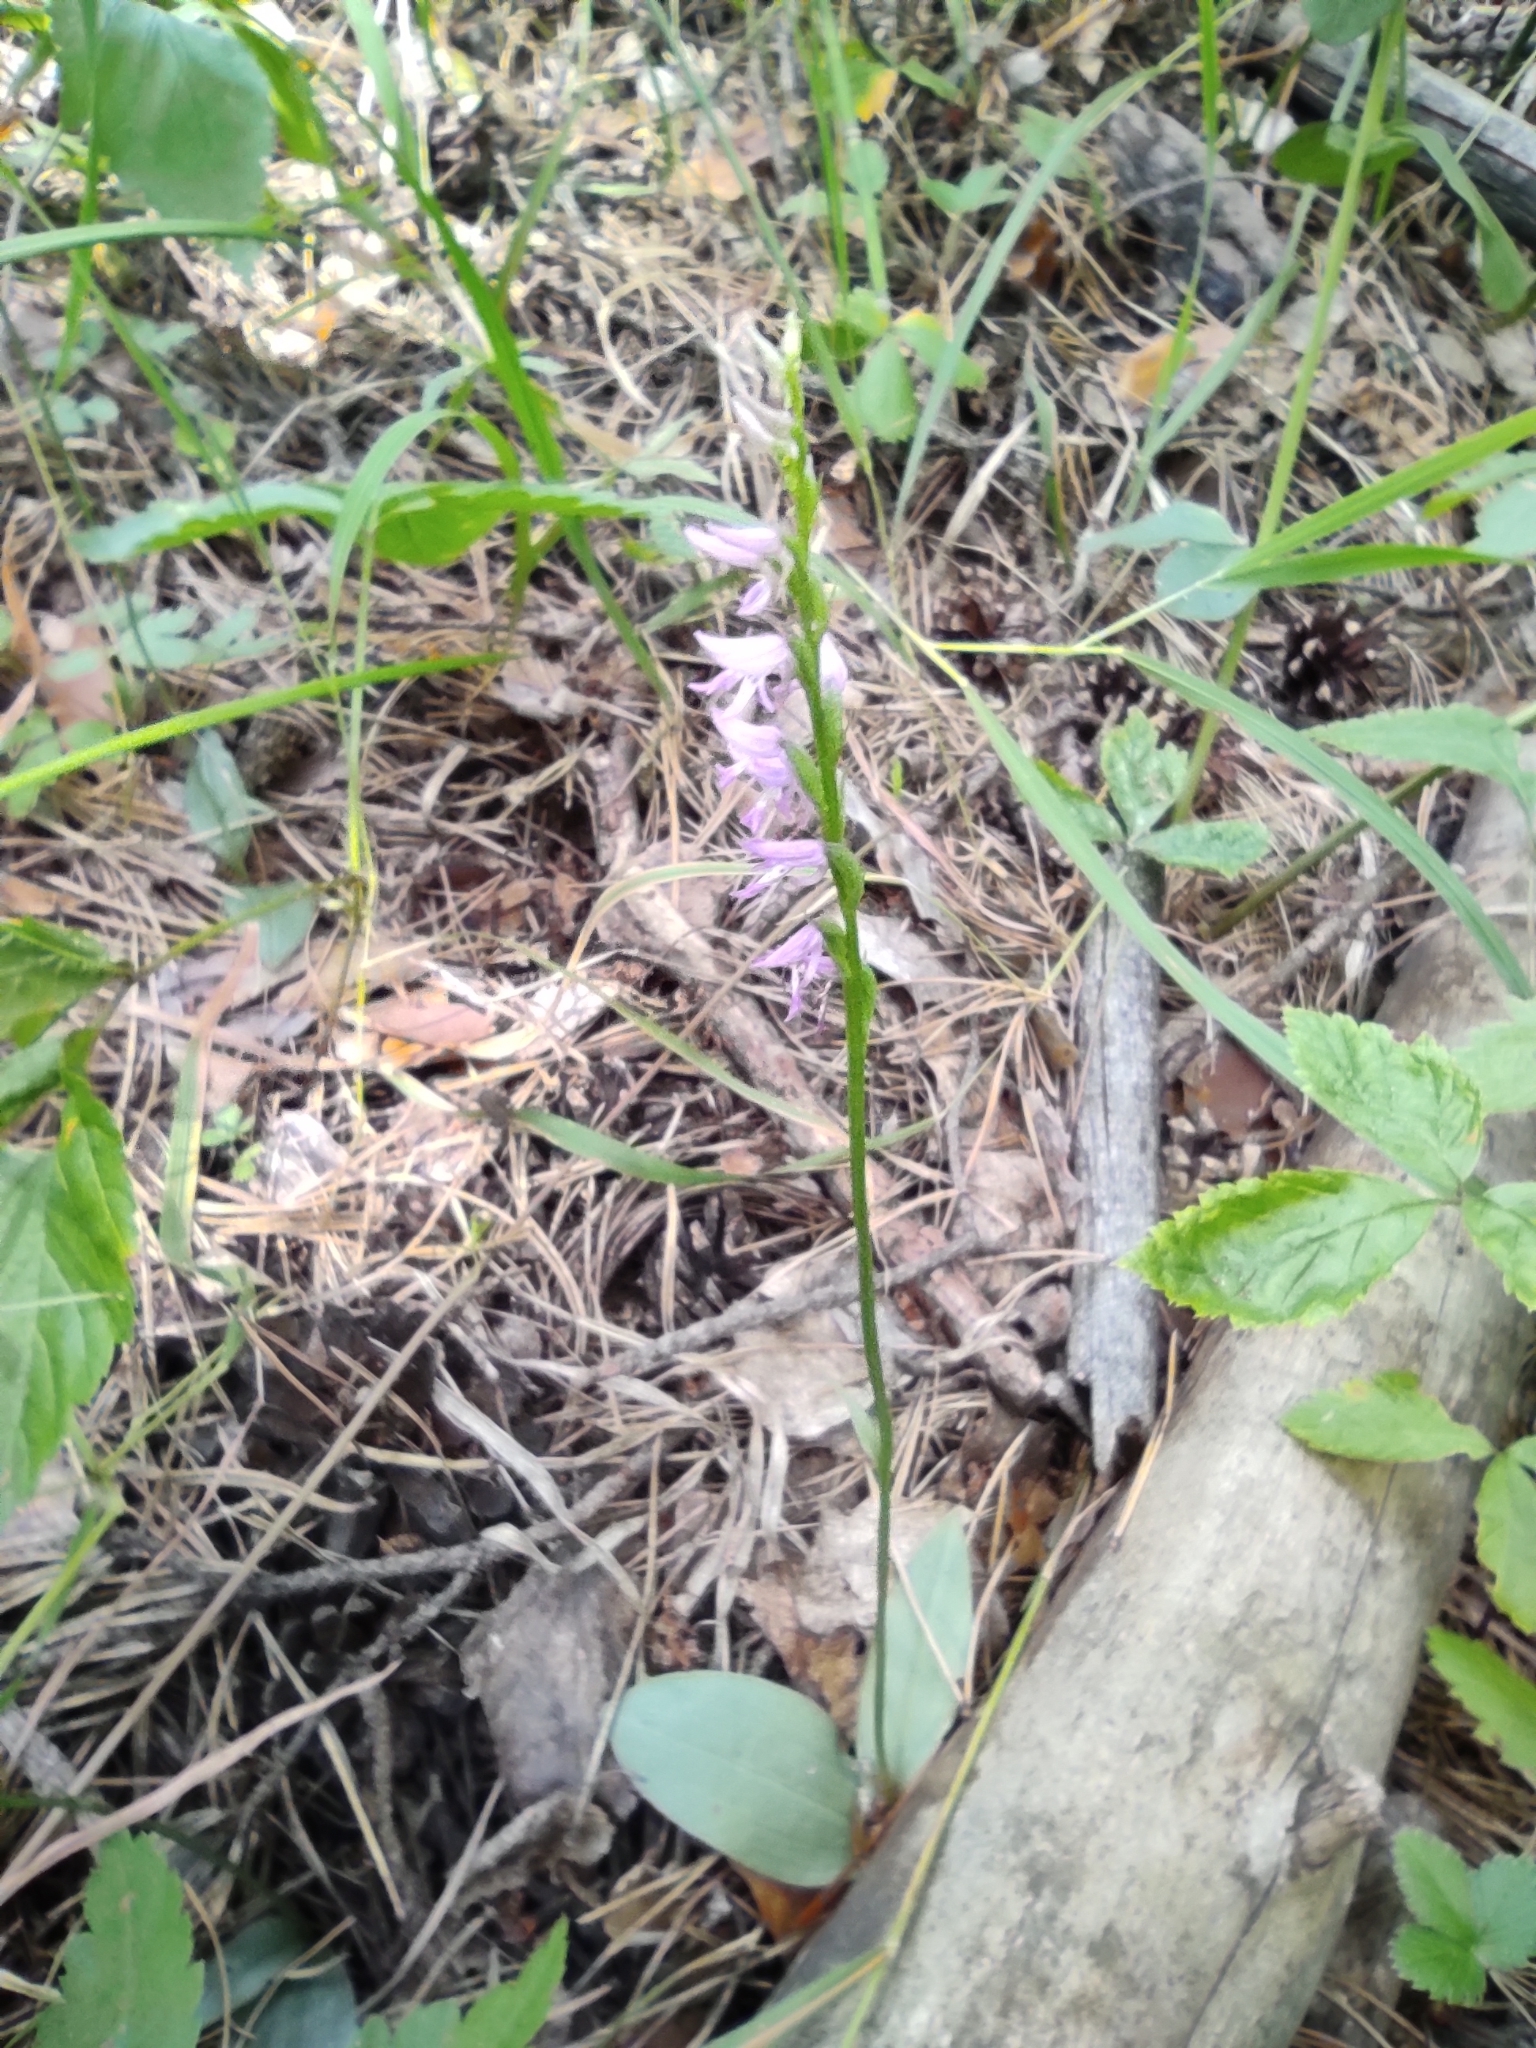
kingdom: Plantae
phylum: Tracheophyta
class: Liliopsida
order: Asparagales
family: Orchidaceae
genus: Hemipilia
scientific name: Hemipilia cucullata
